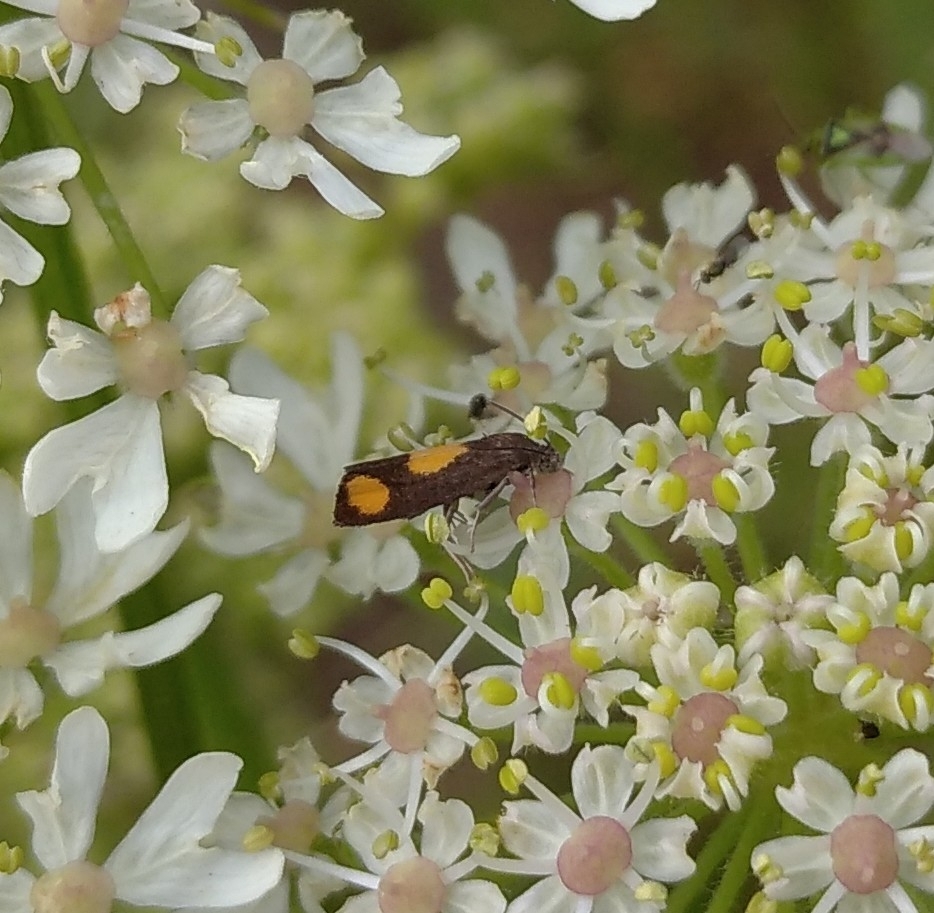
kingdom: Animalia
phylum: Arthropoda
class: Insecta
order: Lepidoptera
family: Tortricidae
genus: Pammene
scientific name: Pammene aurana
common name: Orange-spot piercer
